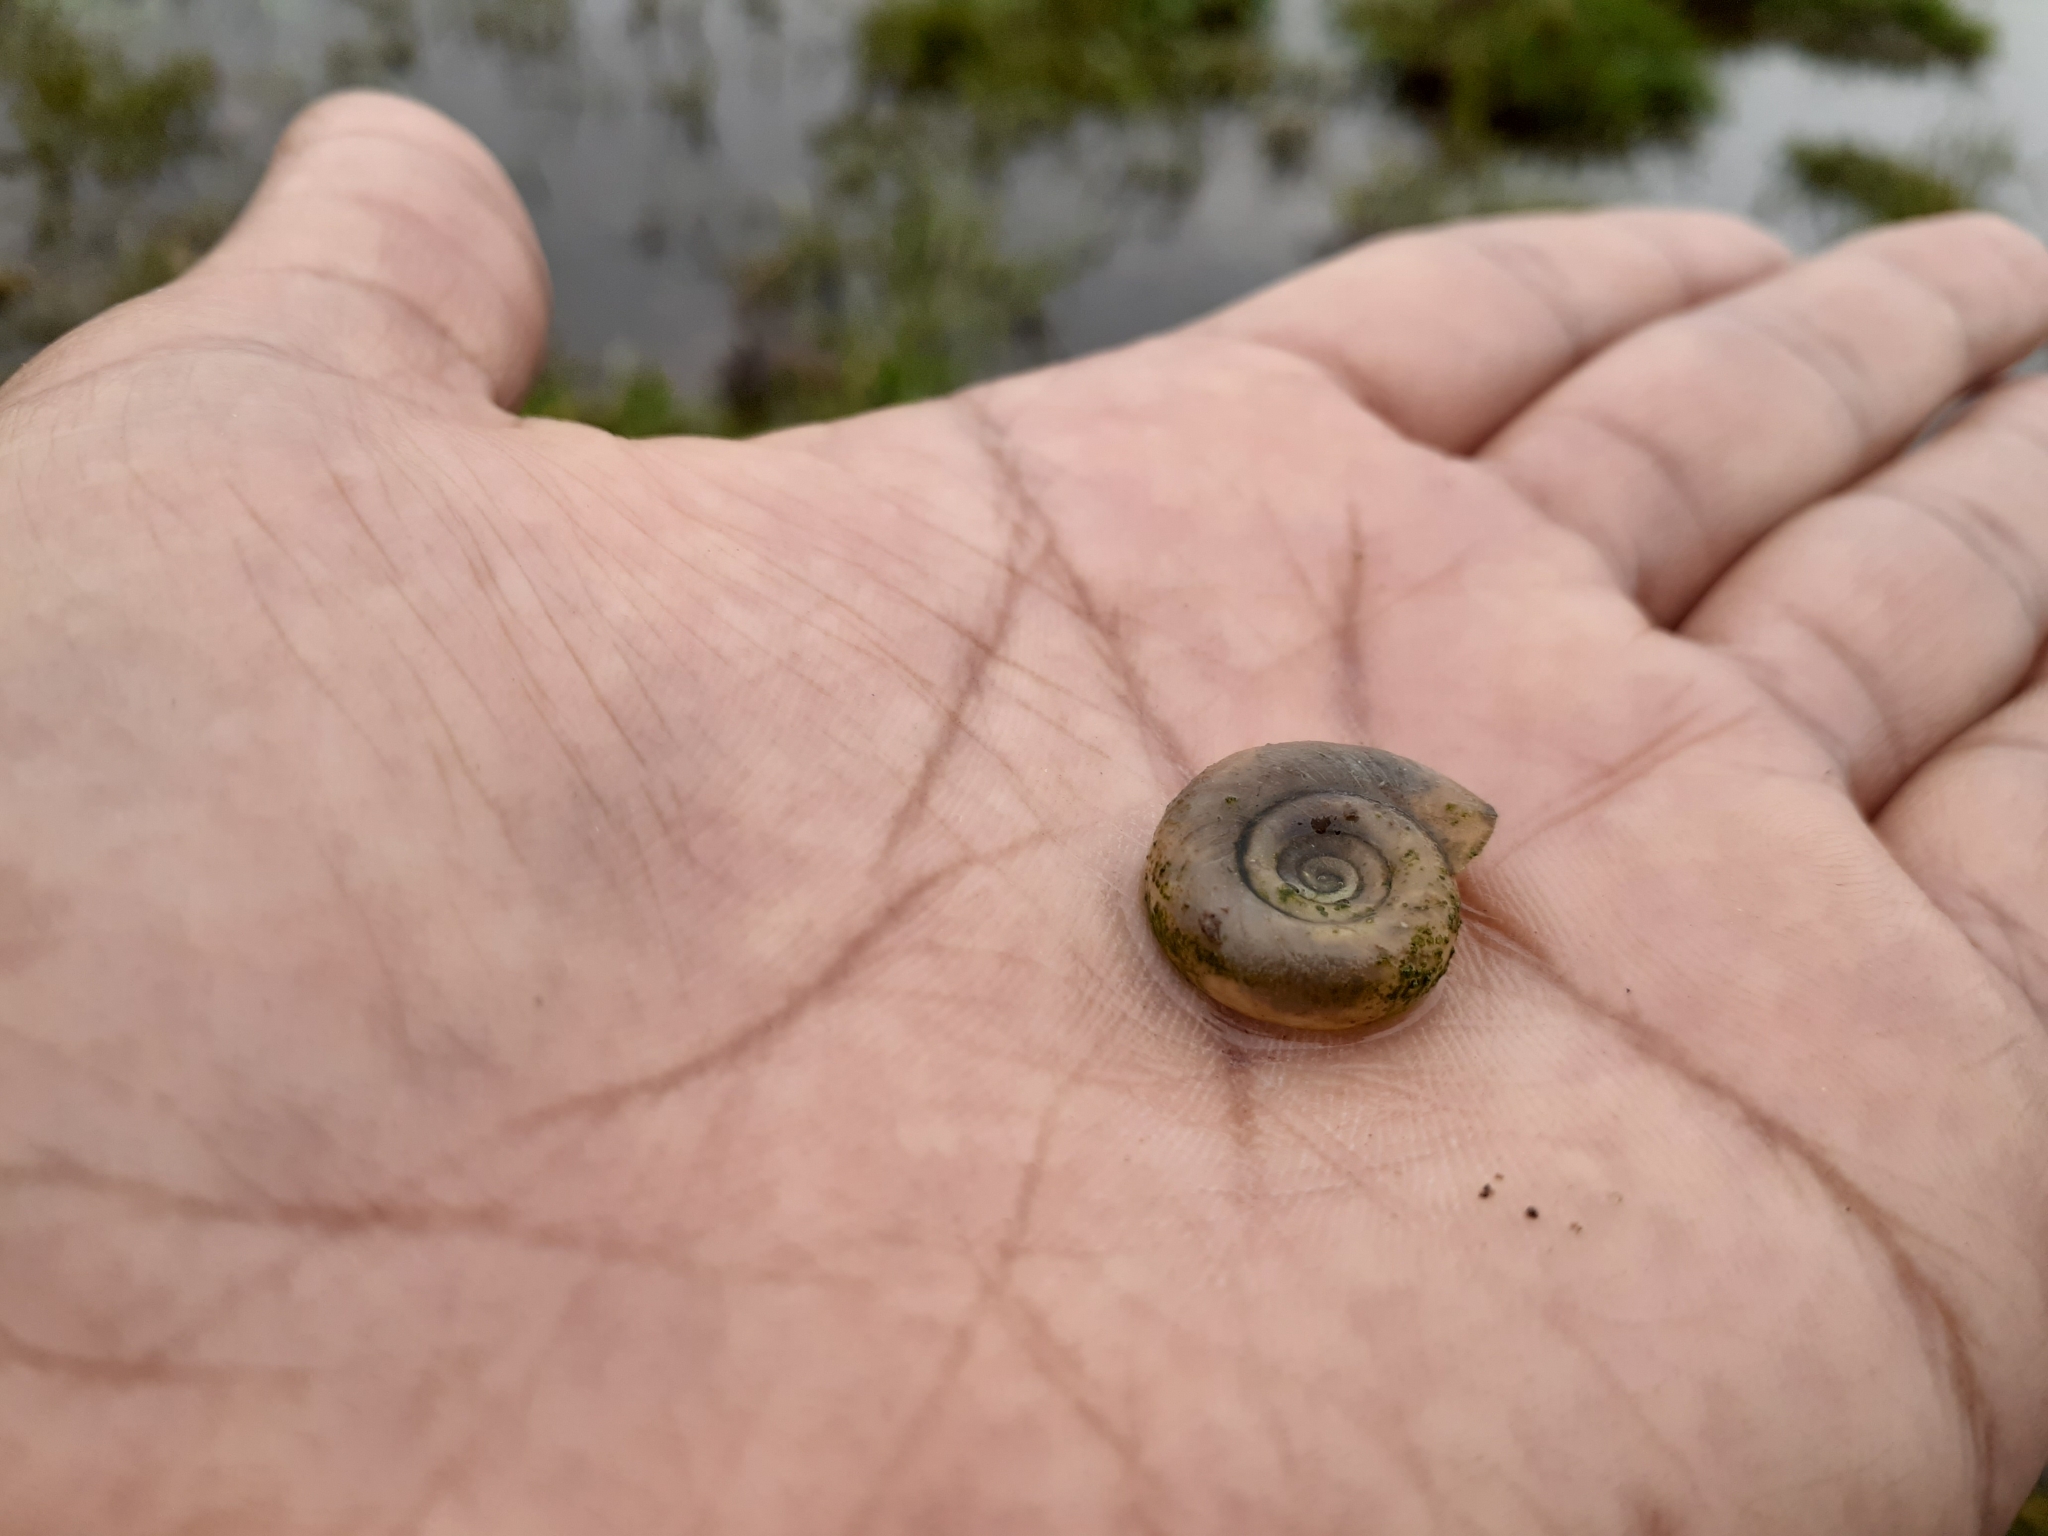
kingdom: Animalia
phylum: Mollusca
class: Gastropoda
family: Planorbidae
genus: Planorbella
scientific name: Planorbella trivolvis
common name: Marsh rams-horn
